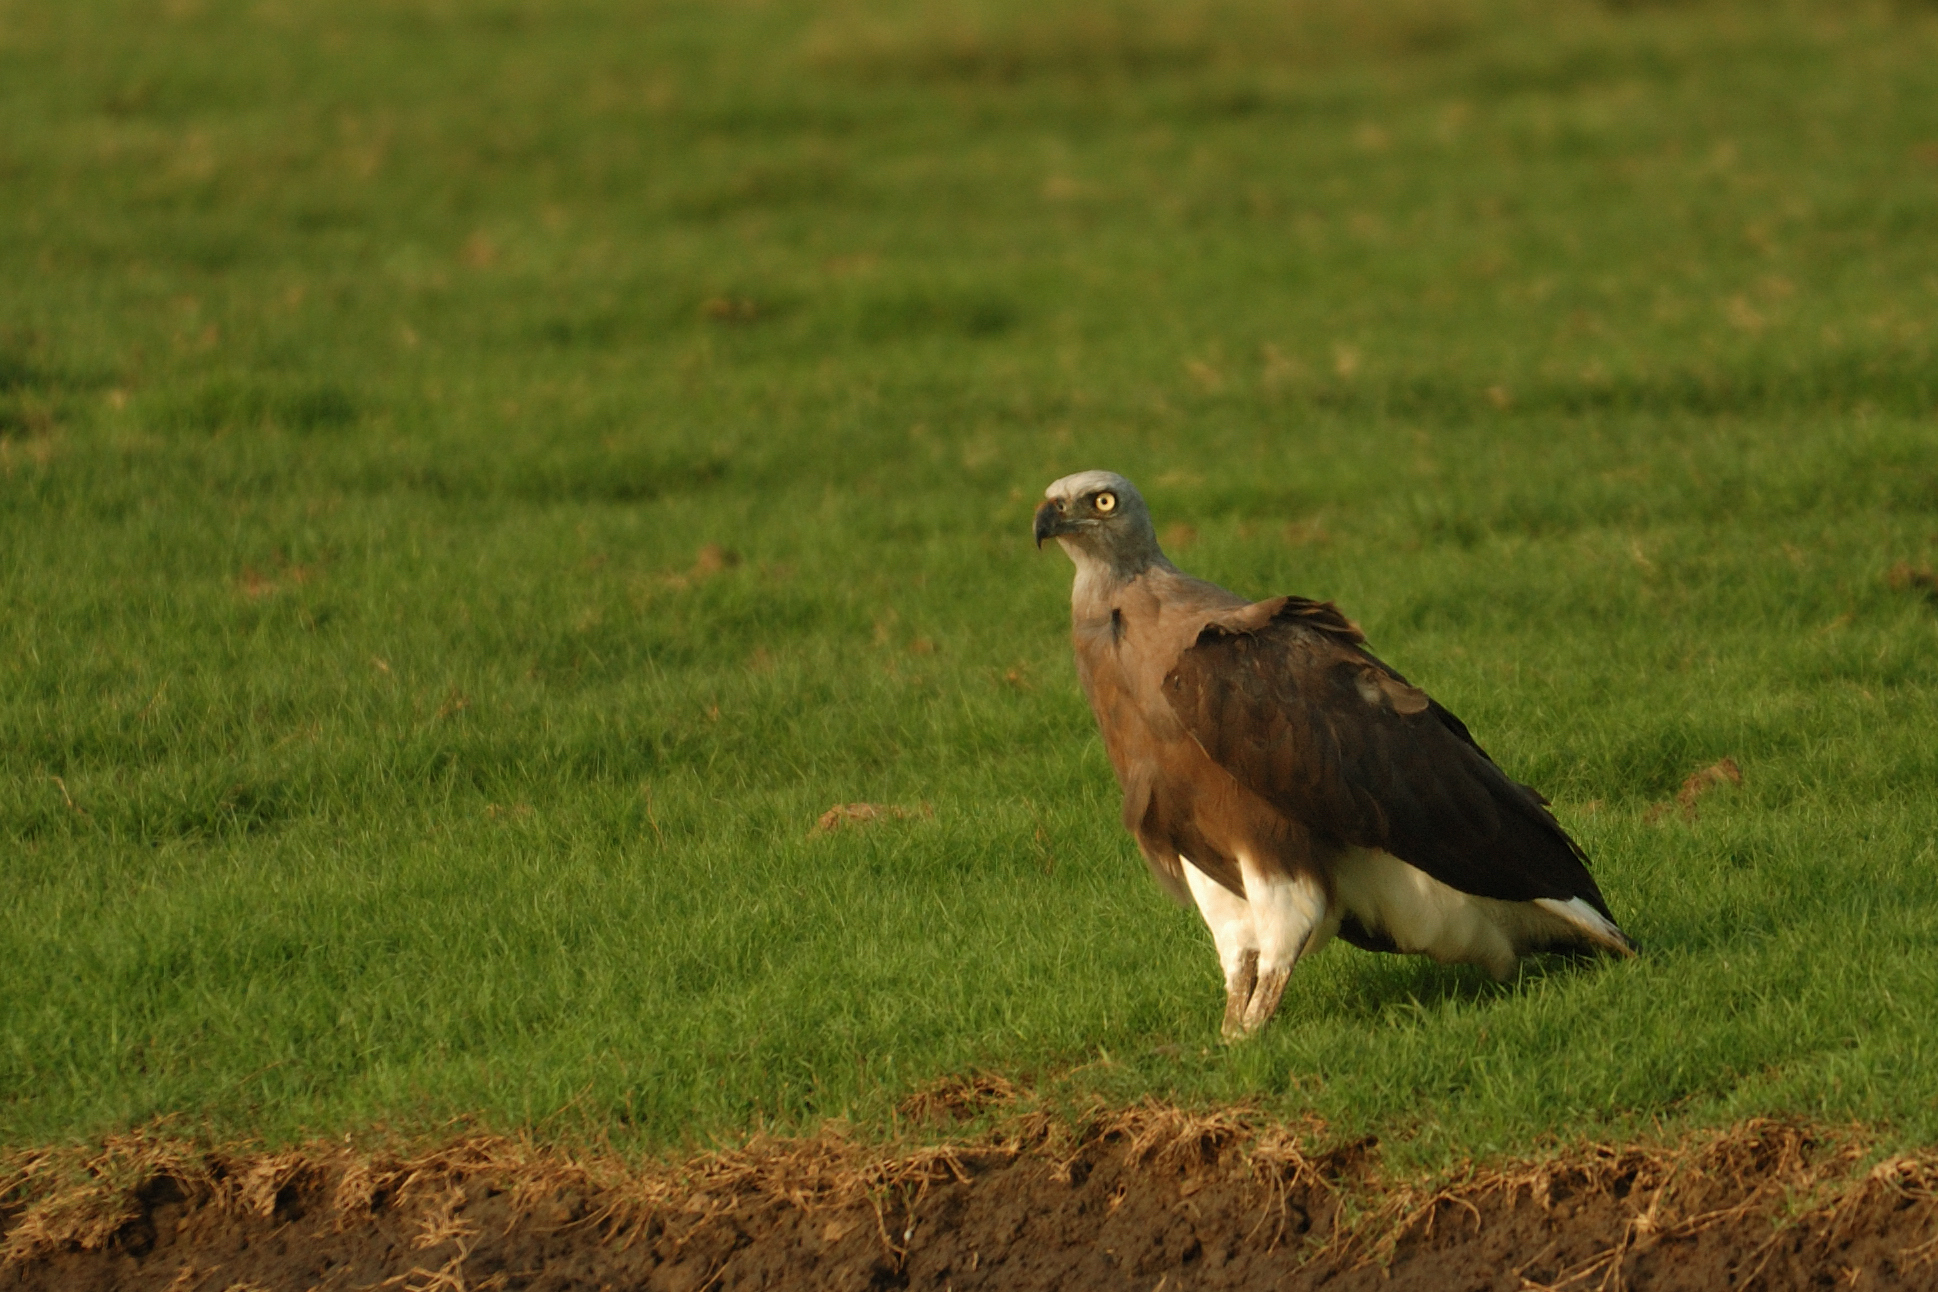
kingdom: Animalia
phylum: Chordata
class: Aves
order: Accipitriformes
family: Accipitridae
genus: Icthyophaga
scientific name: Icthyophaga ichthyaetus
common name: Grey-headed fish eagle
